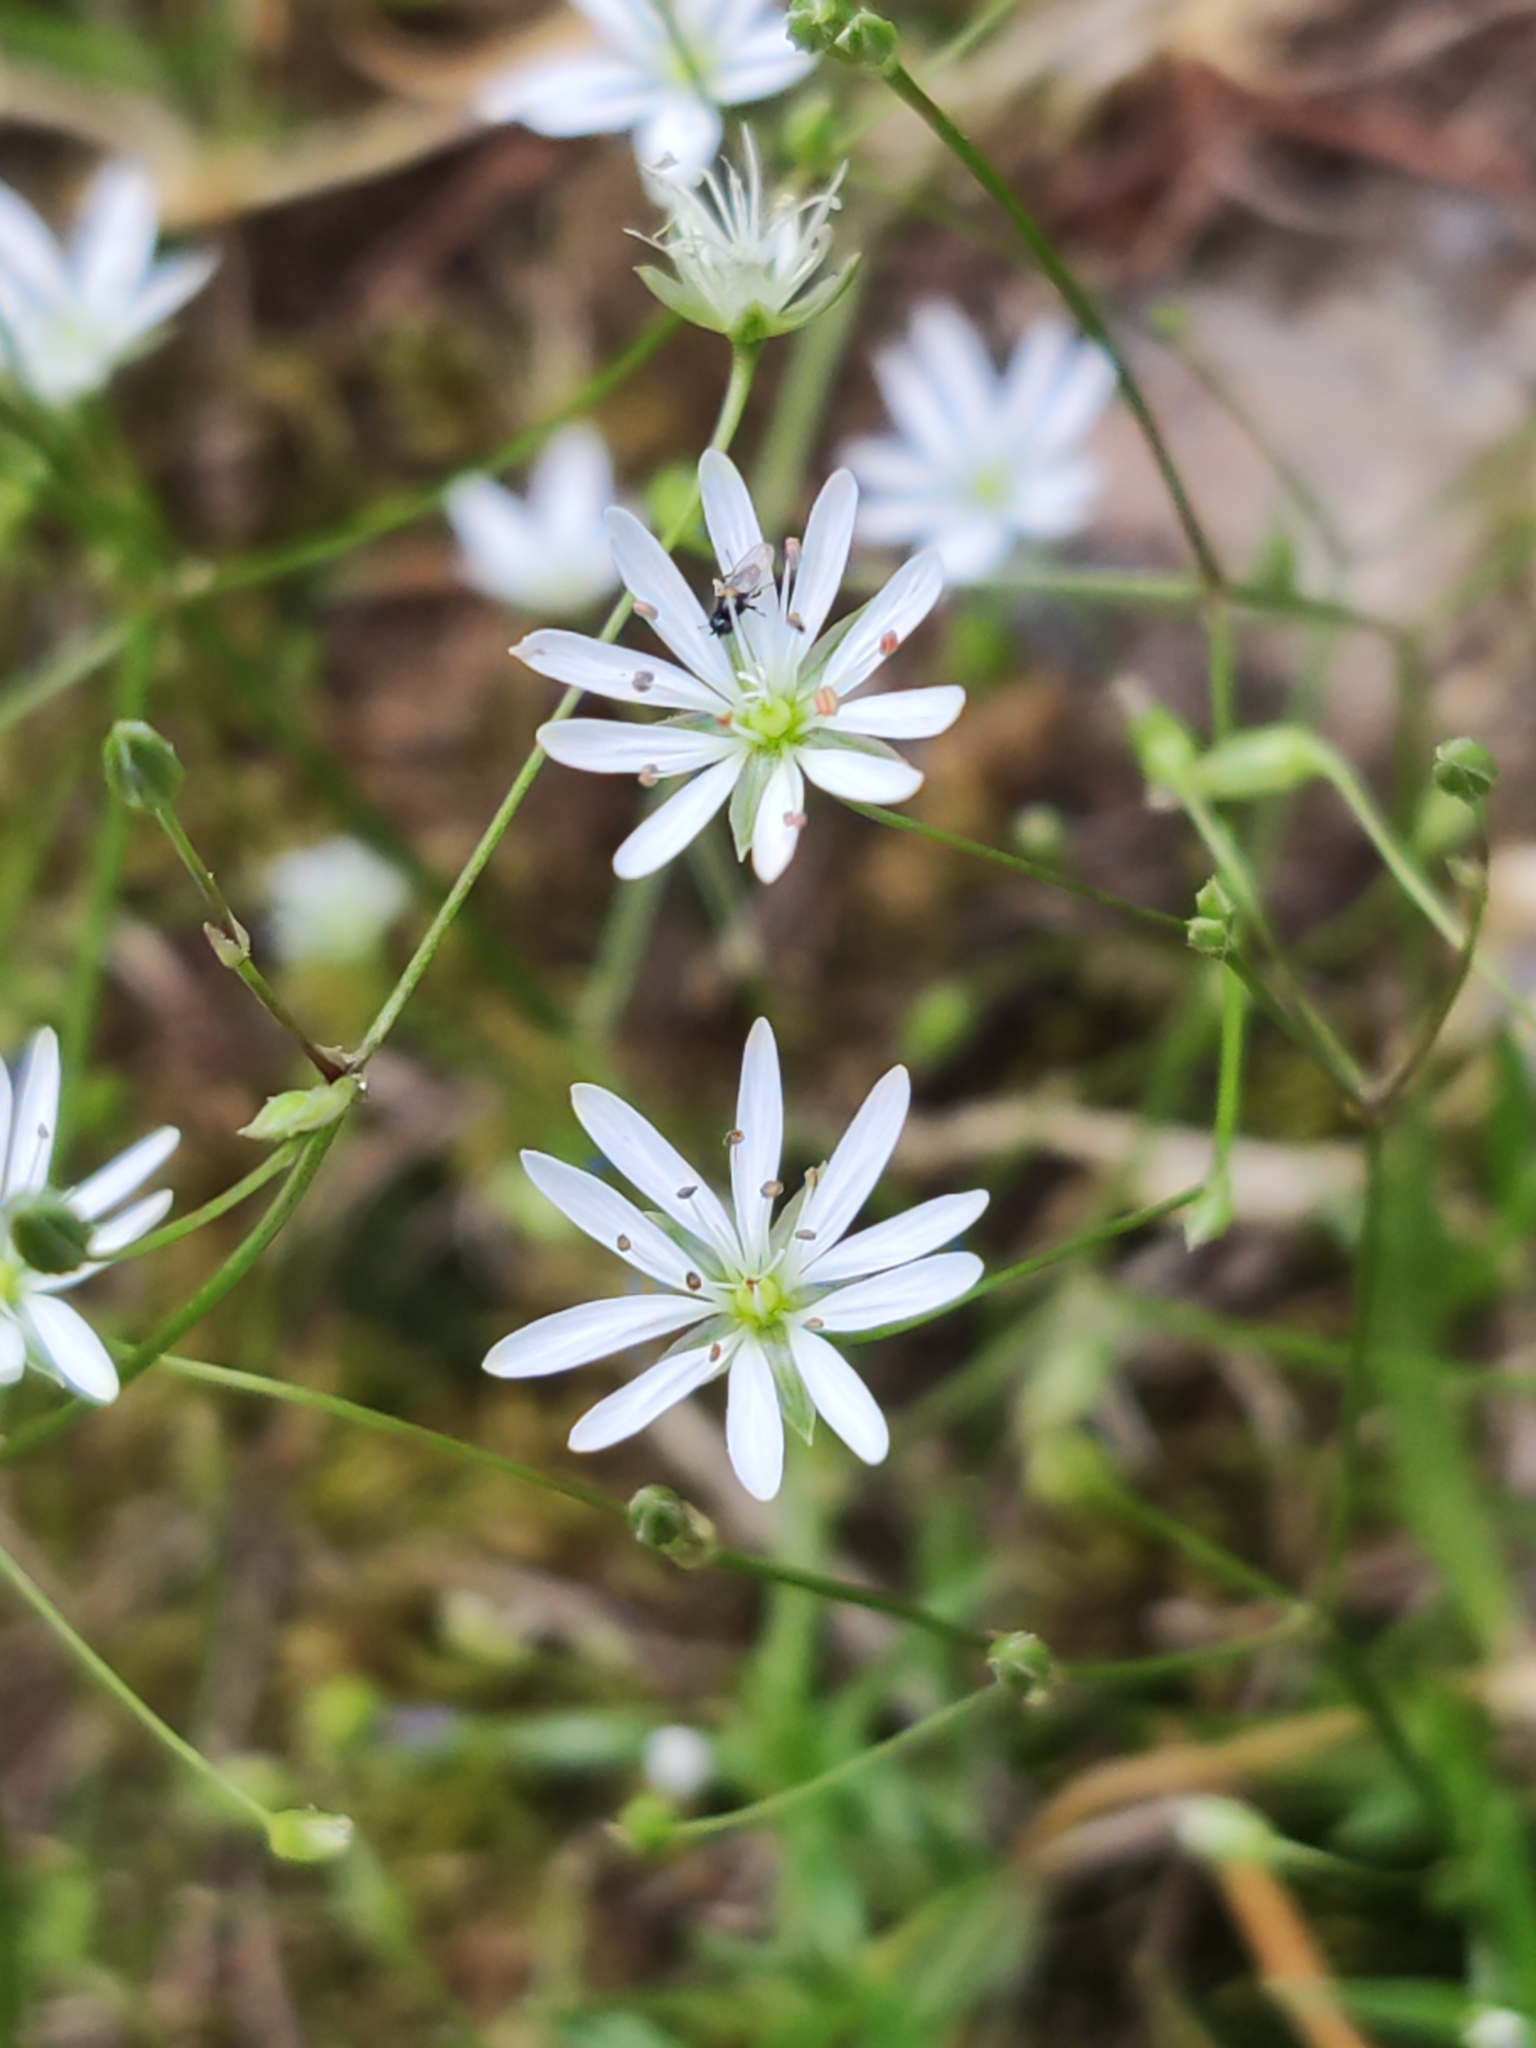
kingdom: Plantae
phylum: Tracheophyta
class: Magnoliopsida
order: Caryophyllales
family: Caryophyllaceae
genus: Stellaria
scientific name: Stellaria graminea
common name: Grass-like starwort
